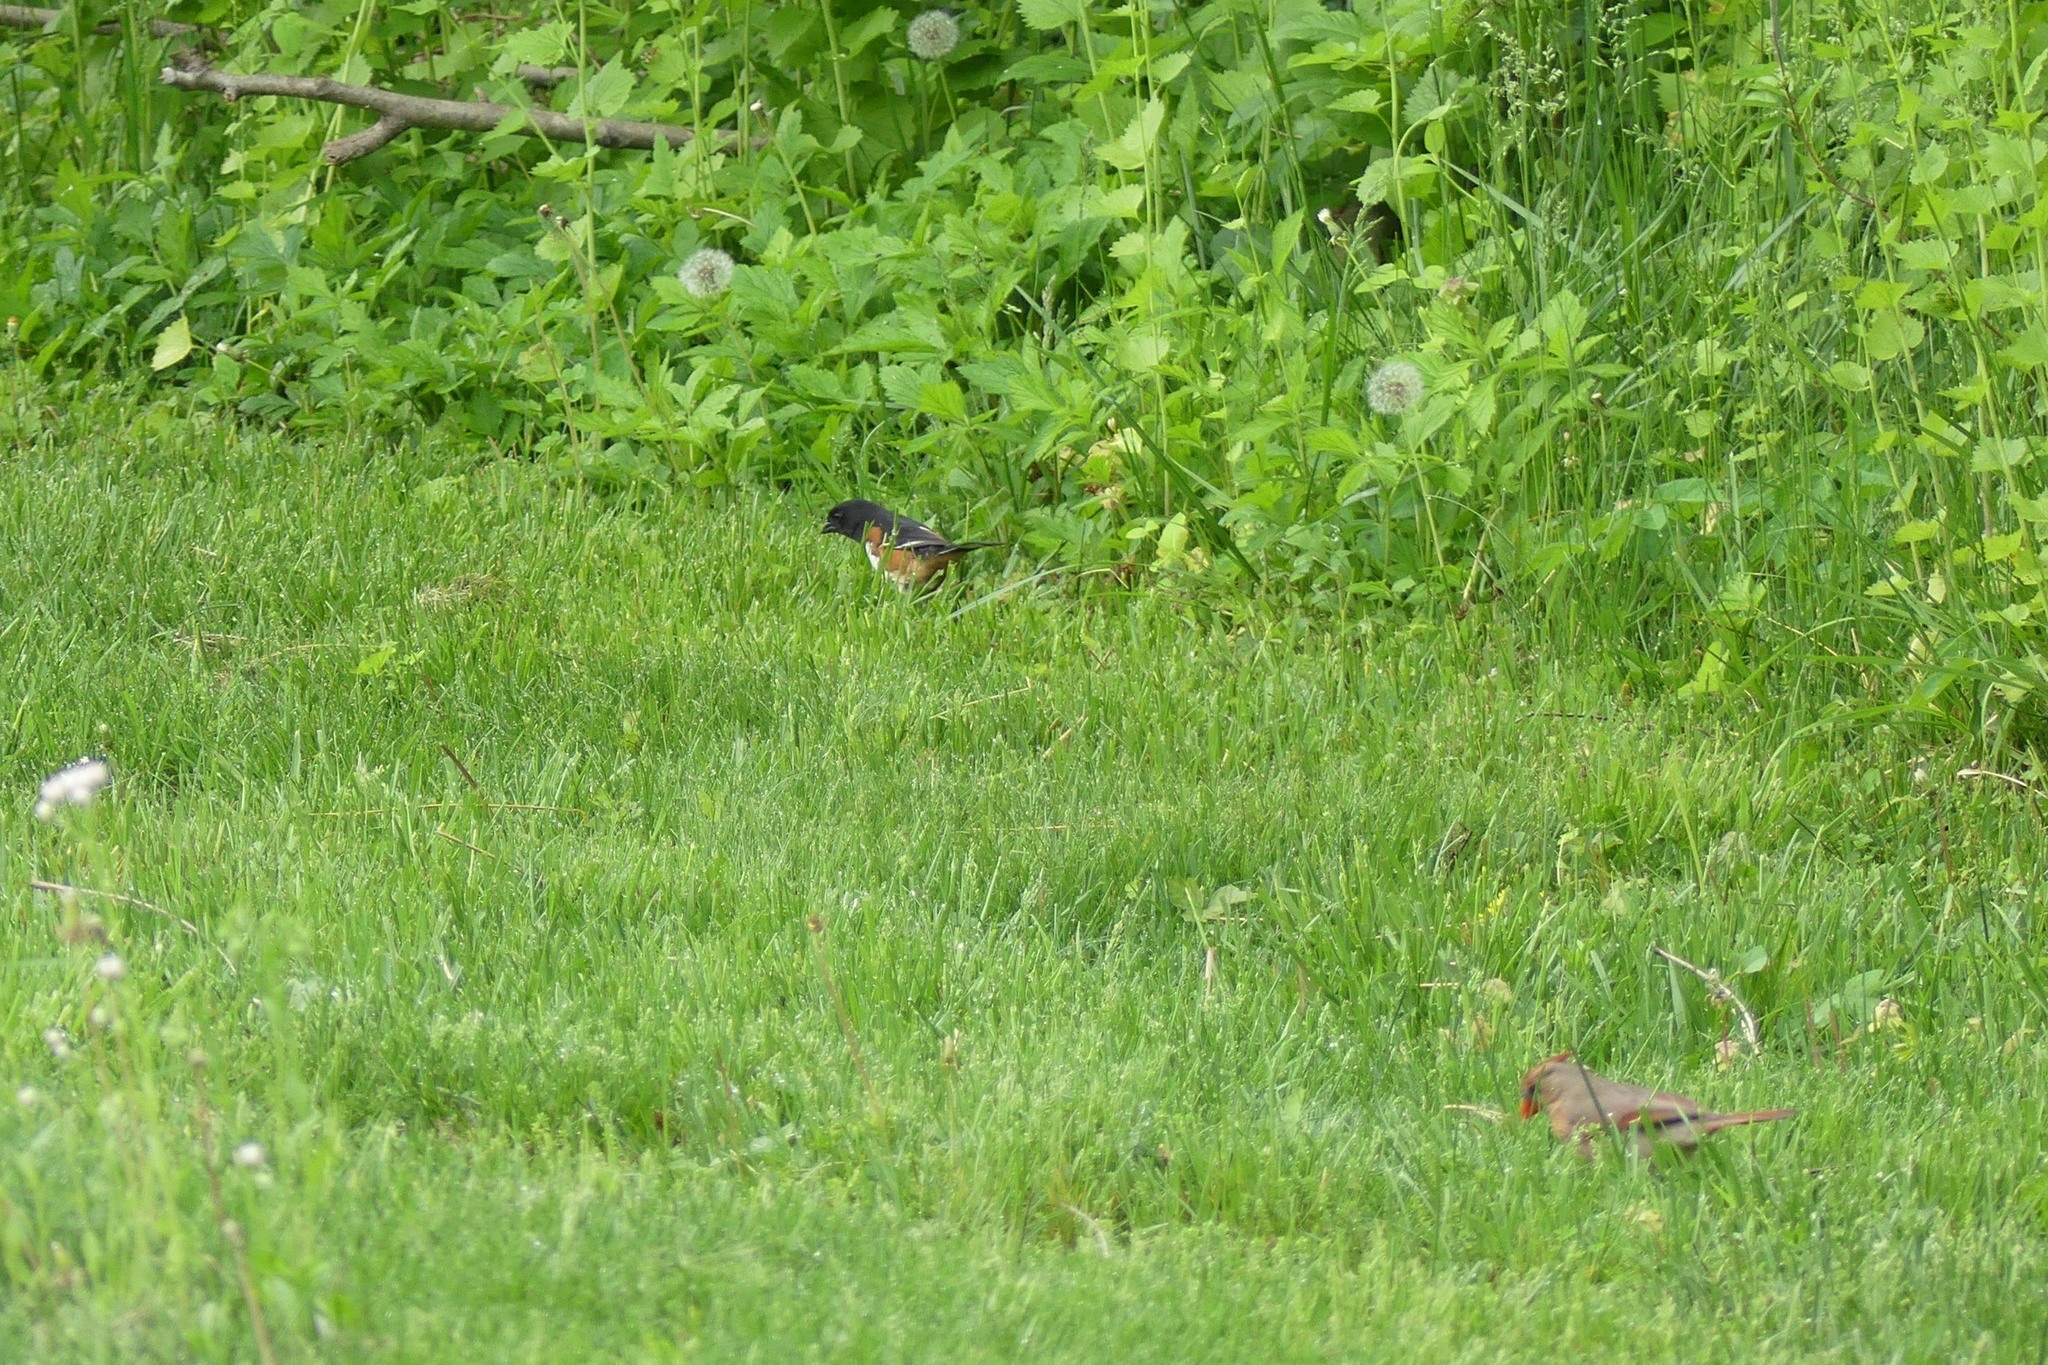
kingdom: Animalia
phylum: Chordata
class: Aves
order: Passeriformes
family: Passerellidae
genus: Pipilo
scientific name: Pipilo erythrophthalmus
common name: Eastern towhee
